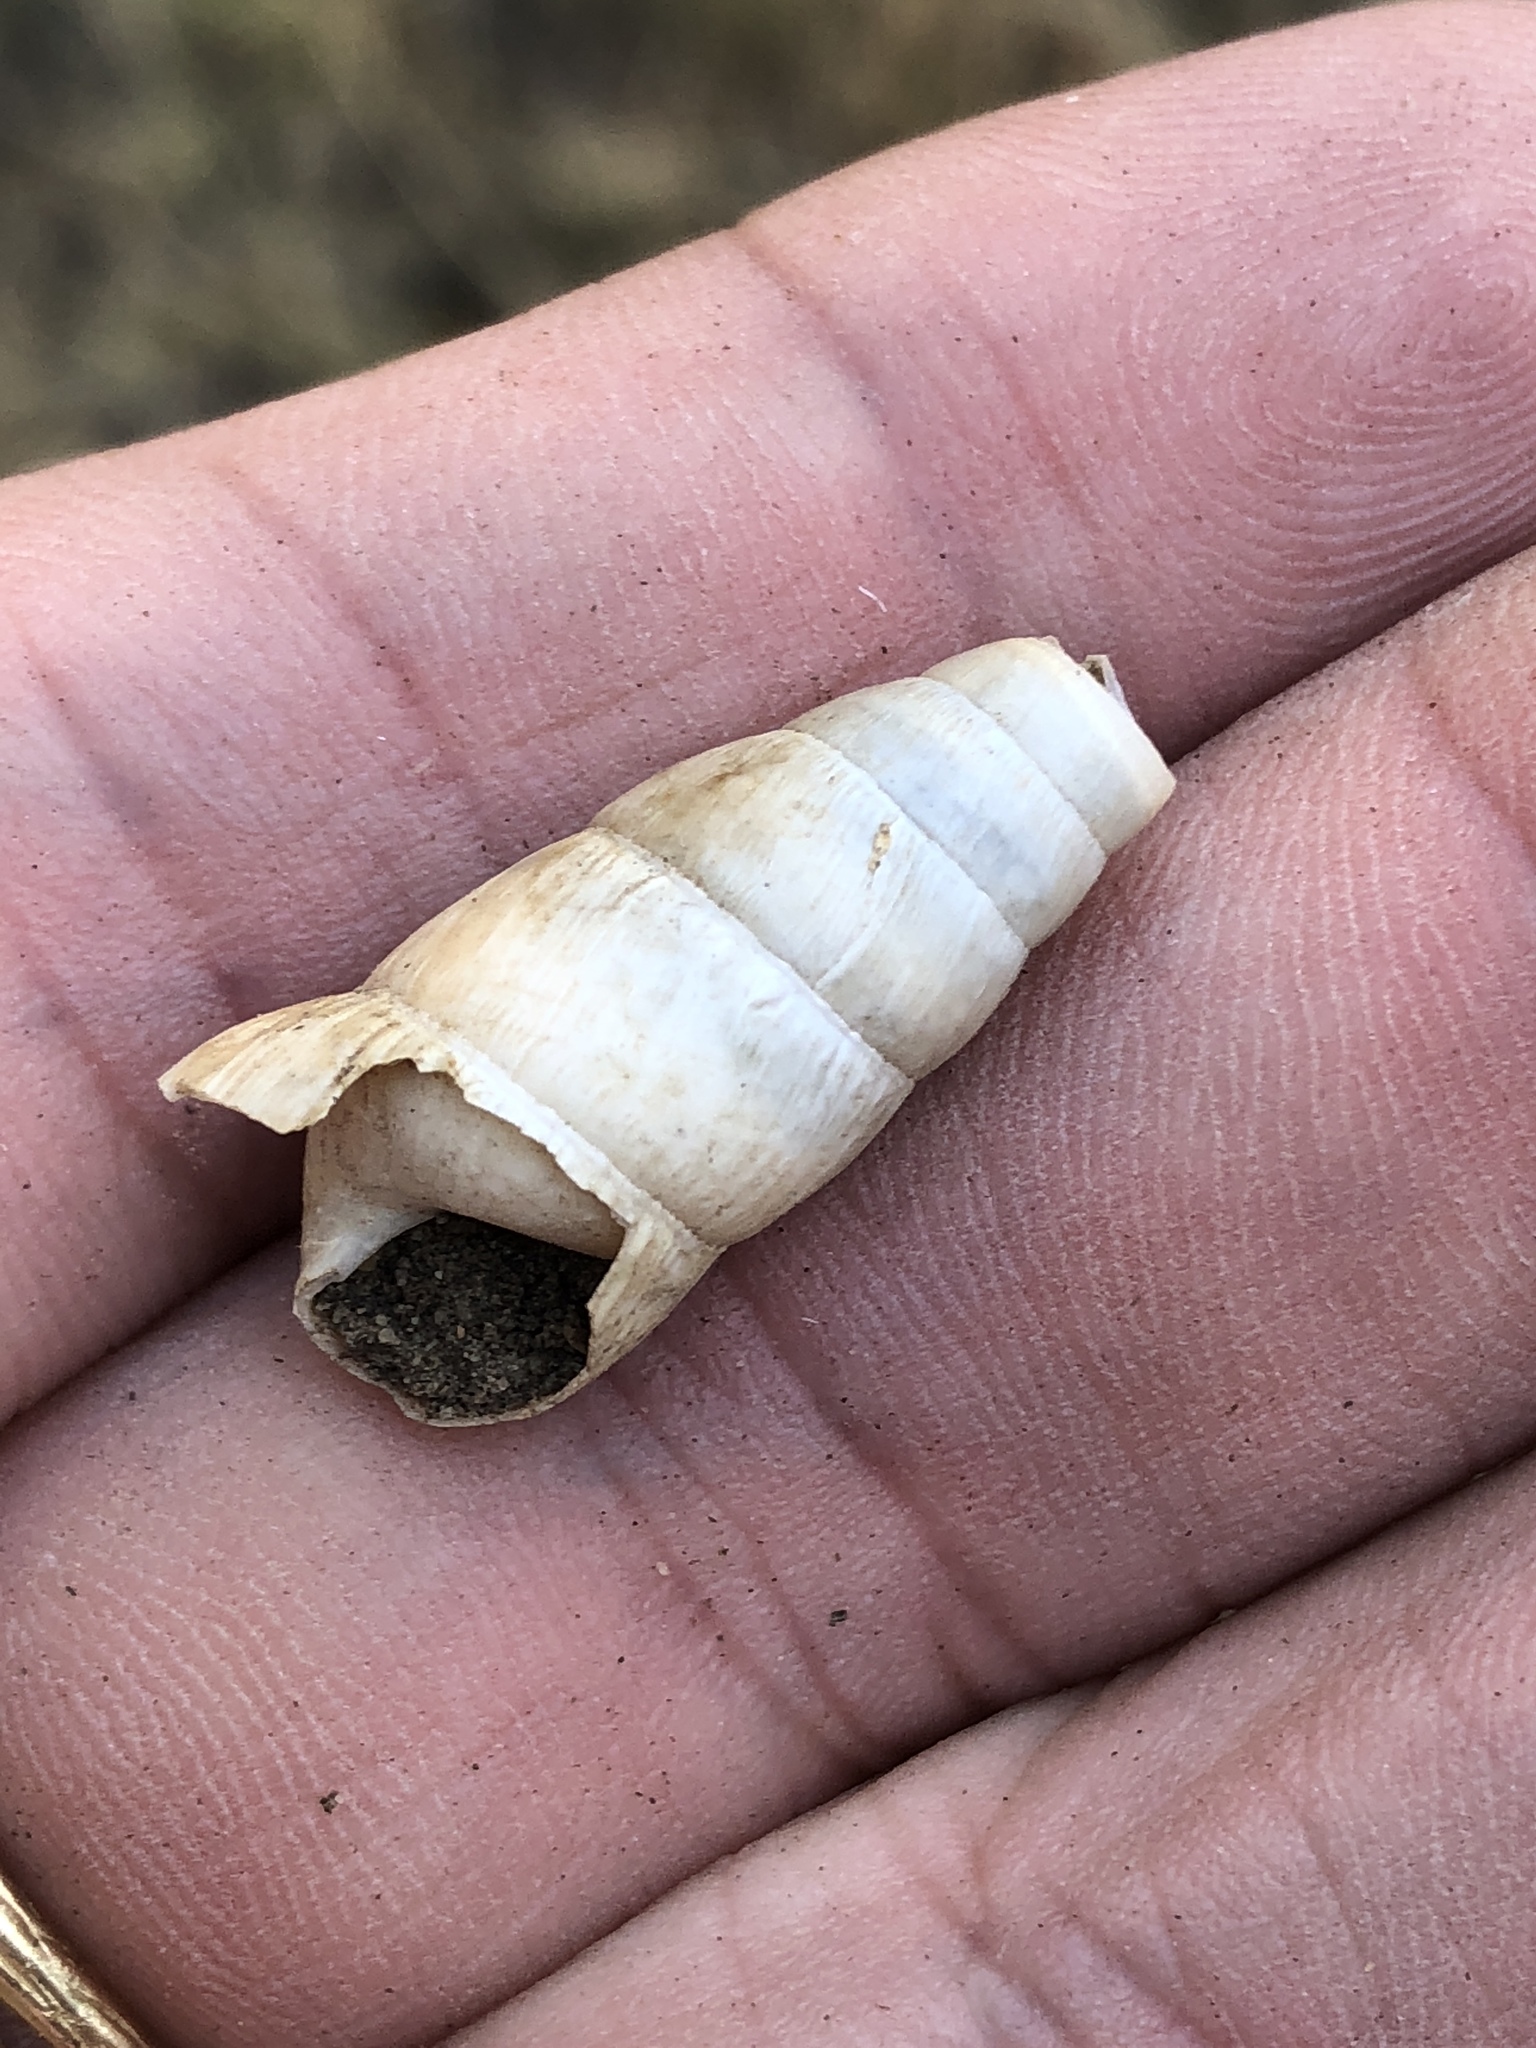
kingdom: Animalia
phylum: Mollusca
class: Gastropoda
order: Stylommatophora
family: Achatinidae
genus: Rumina
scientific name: Rumina decollata
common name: Decollate snail
